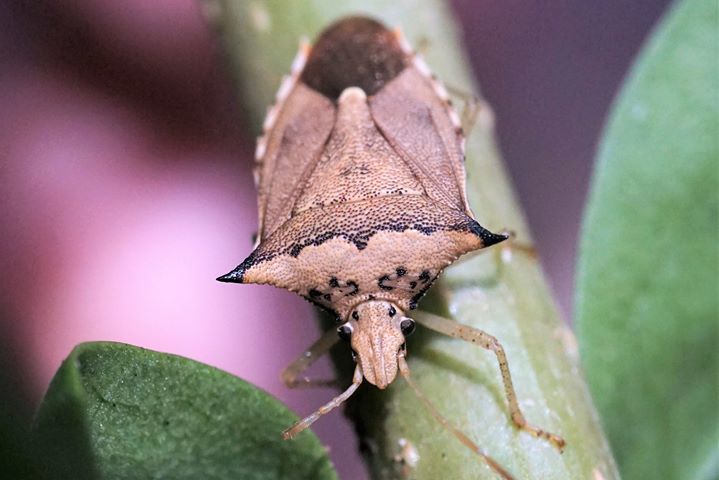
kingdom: Animalia
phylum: Arthropoda
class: Insecta
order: Hemiptera
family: Pentatomidae
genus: Euschistus
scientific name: Euschistus acuminatus
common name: Stink bug
